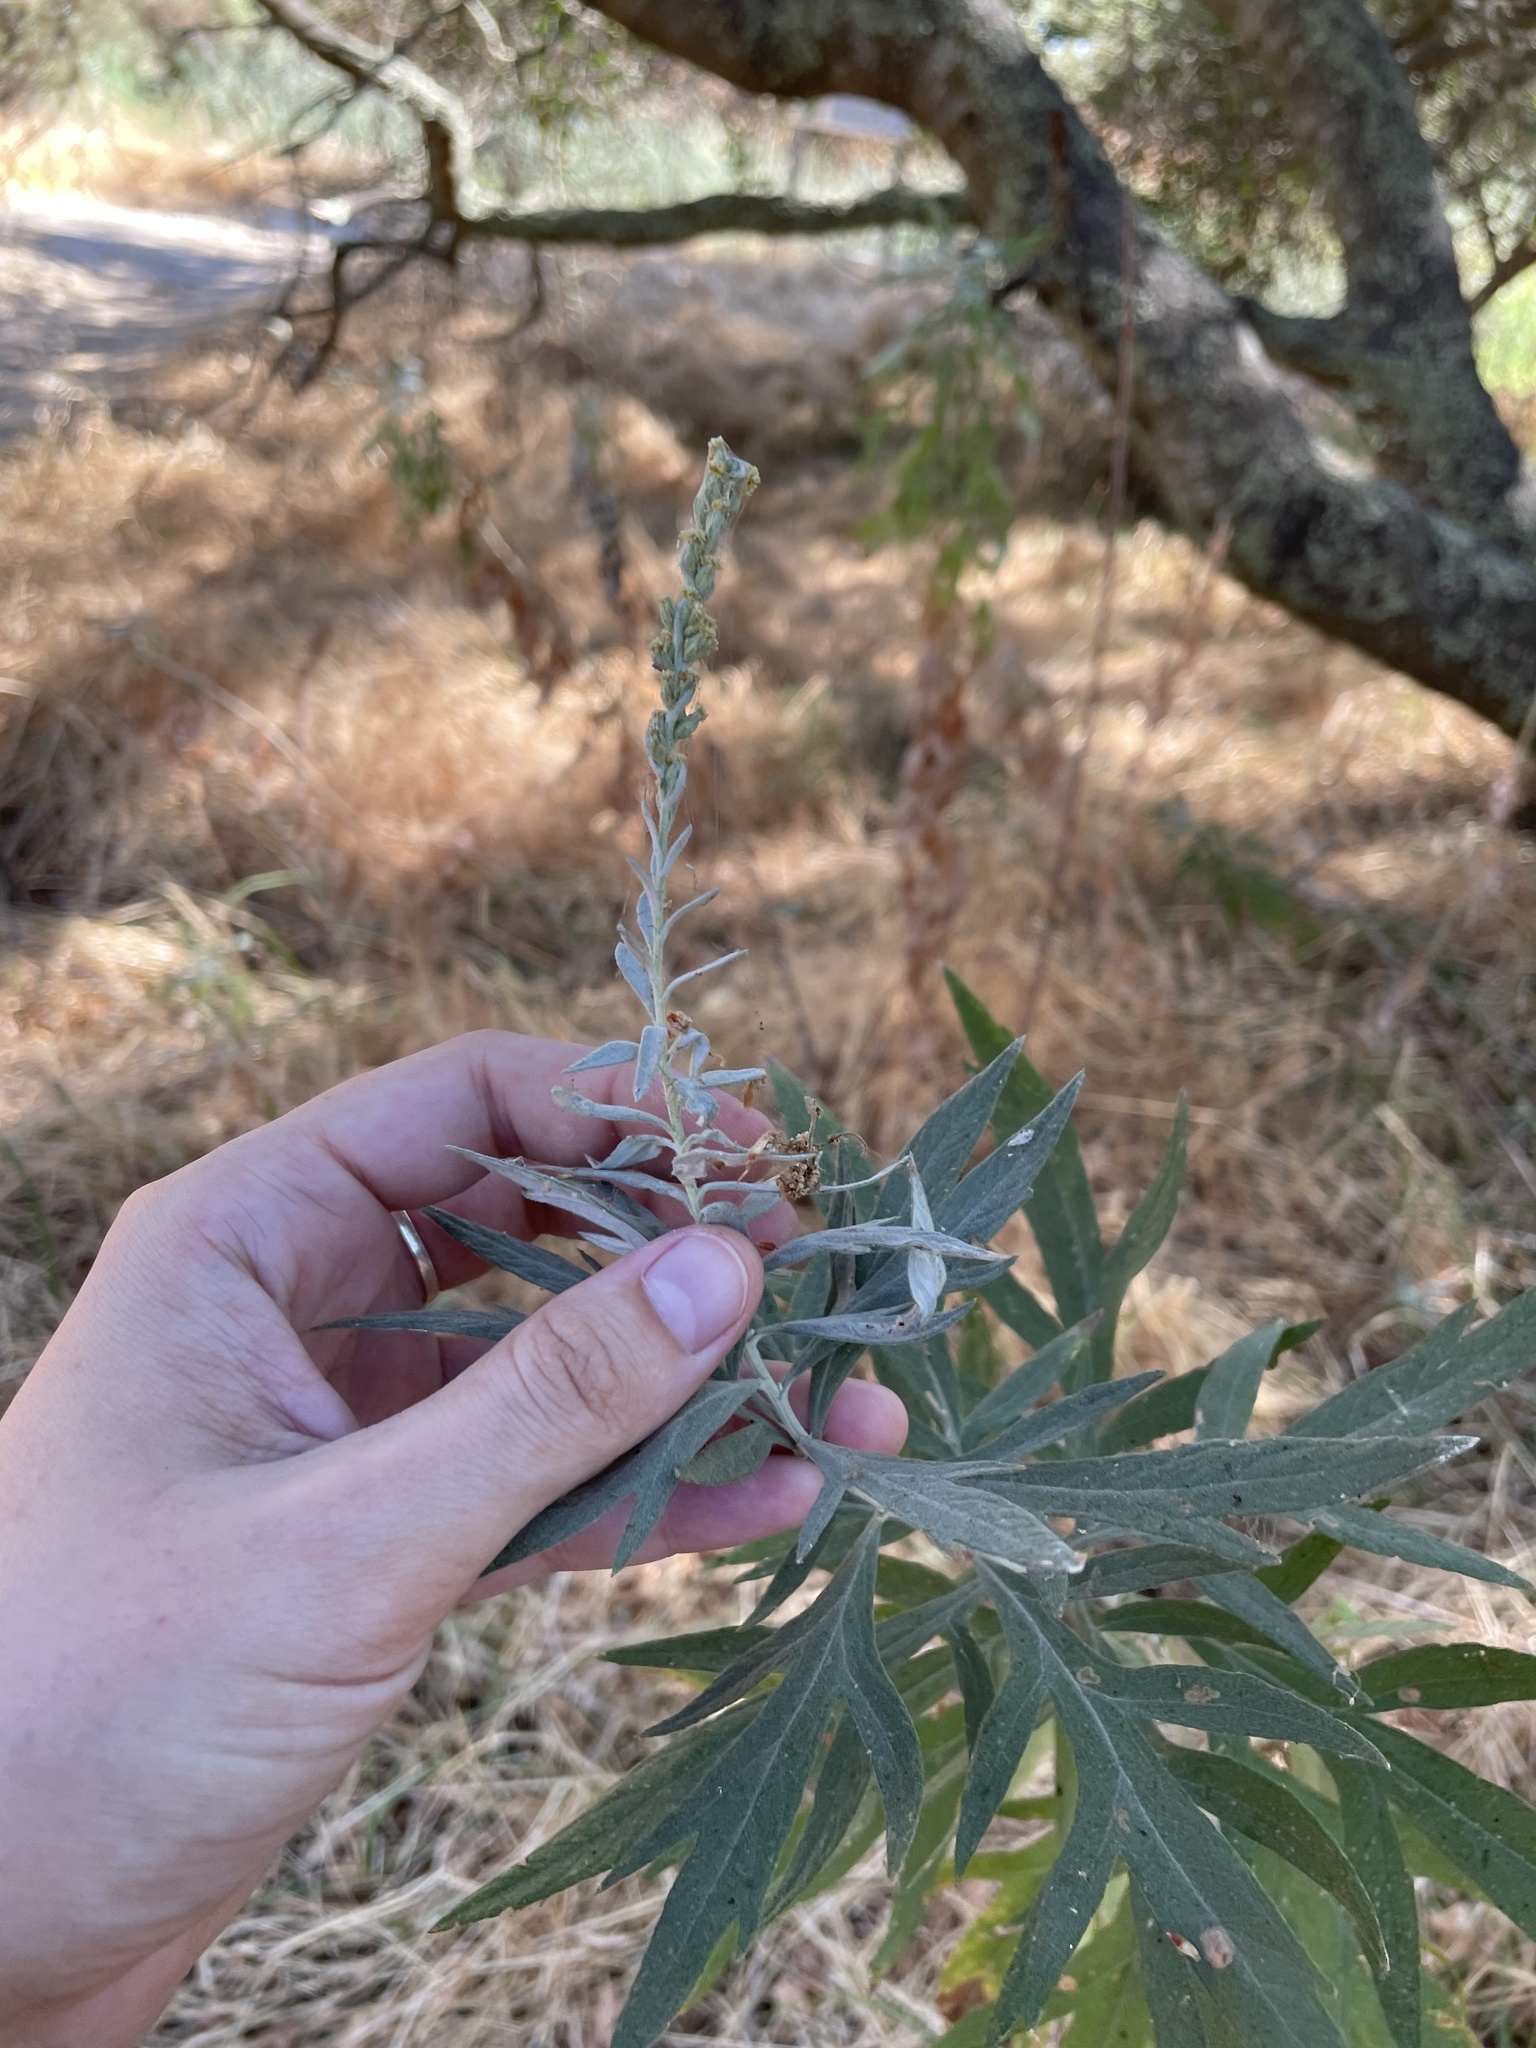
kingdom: Plantae
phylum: Tracheophyta
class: Magnoliopsida
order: Asterales
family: Asteraceae
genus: Artemisia
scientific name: Artemisia douglasiana
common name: Northwest mugwort
